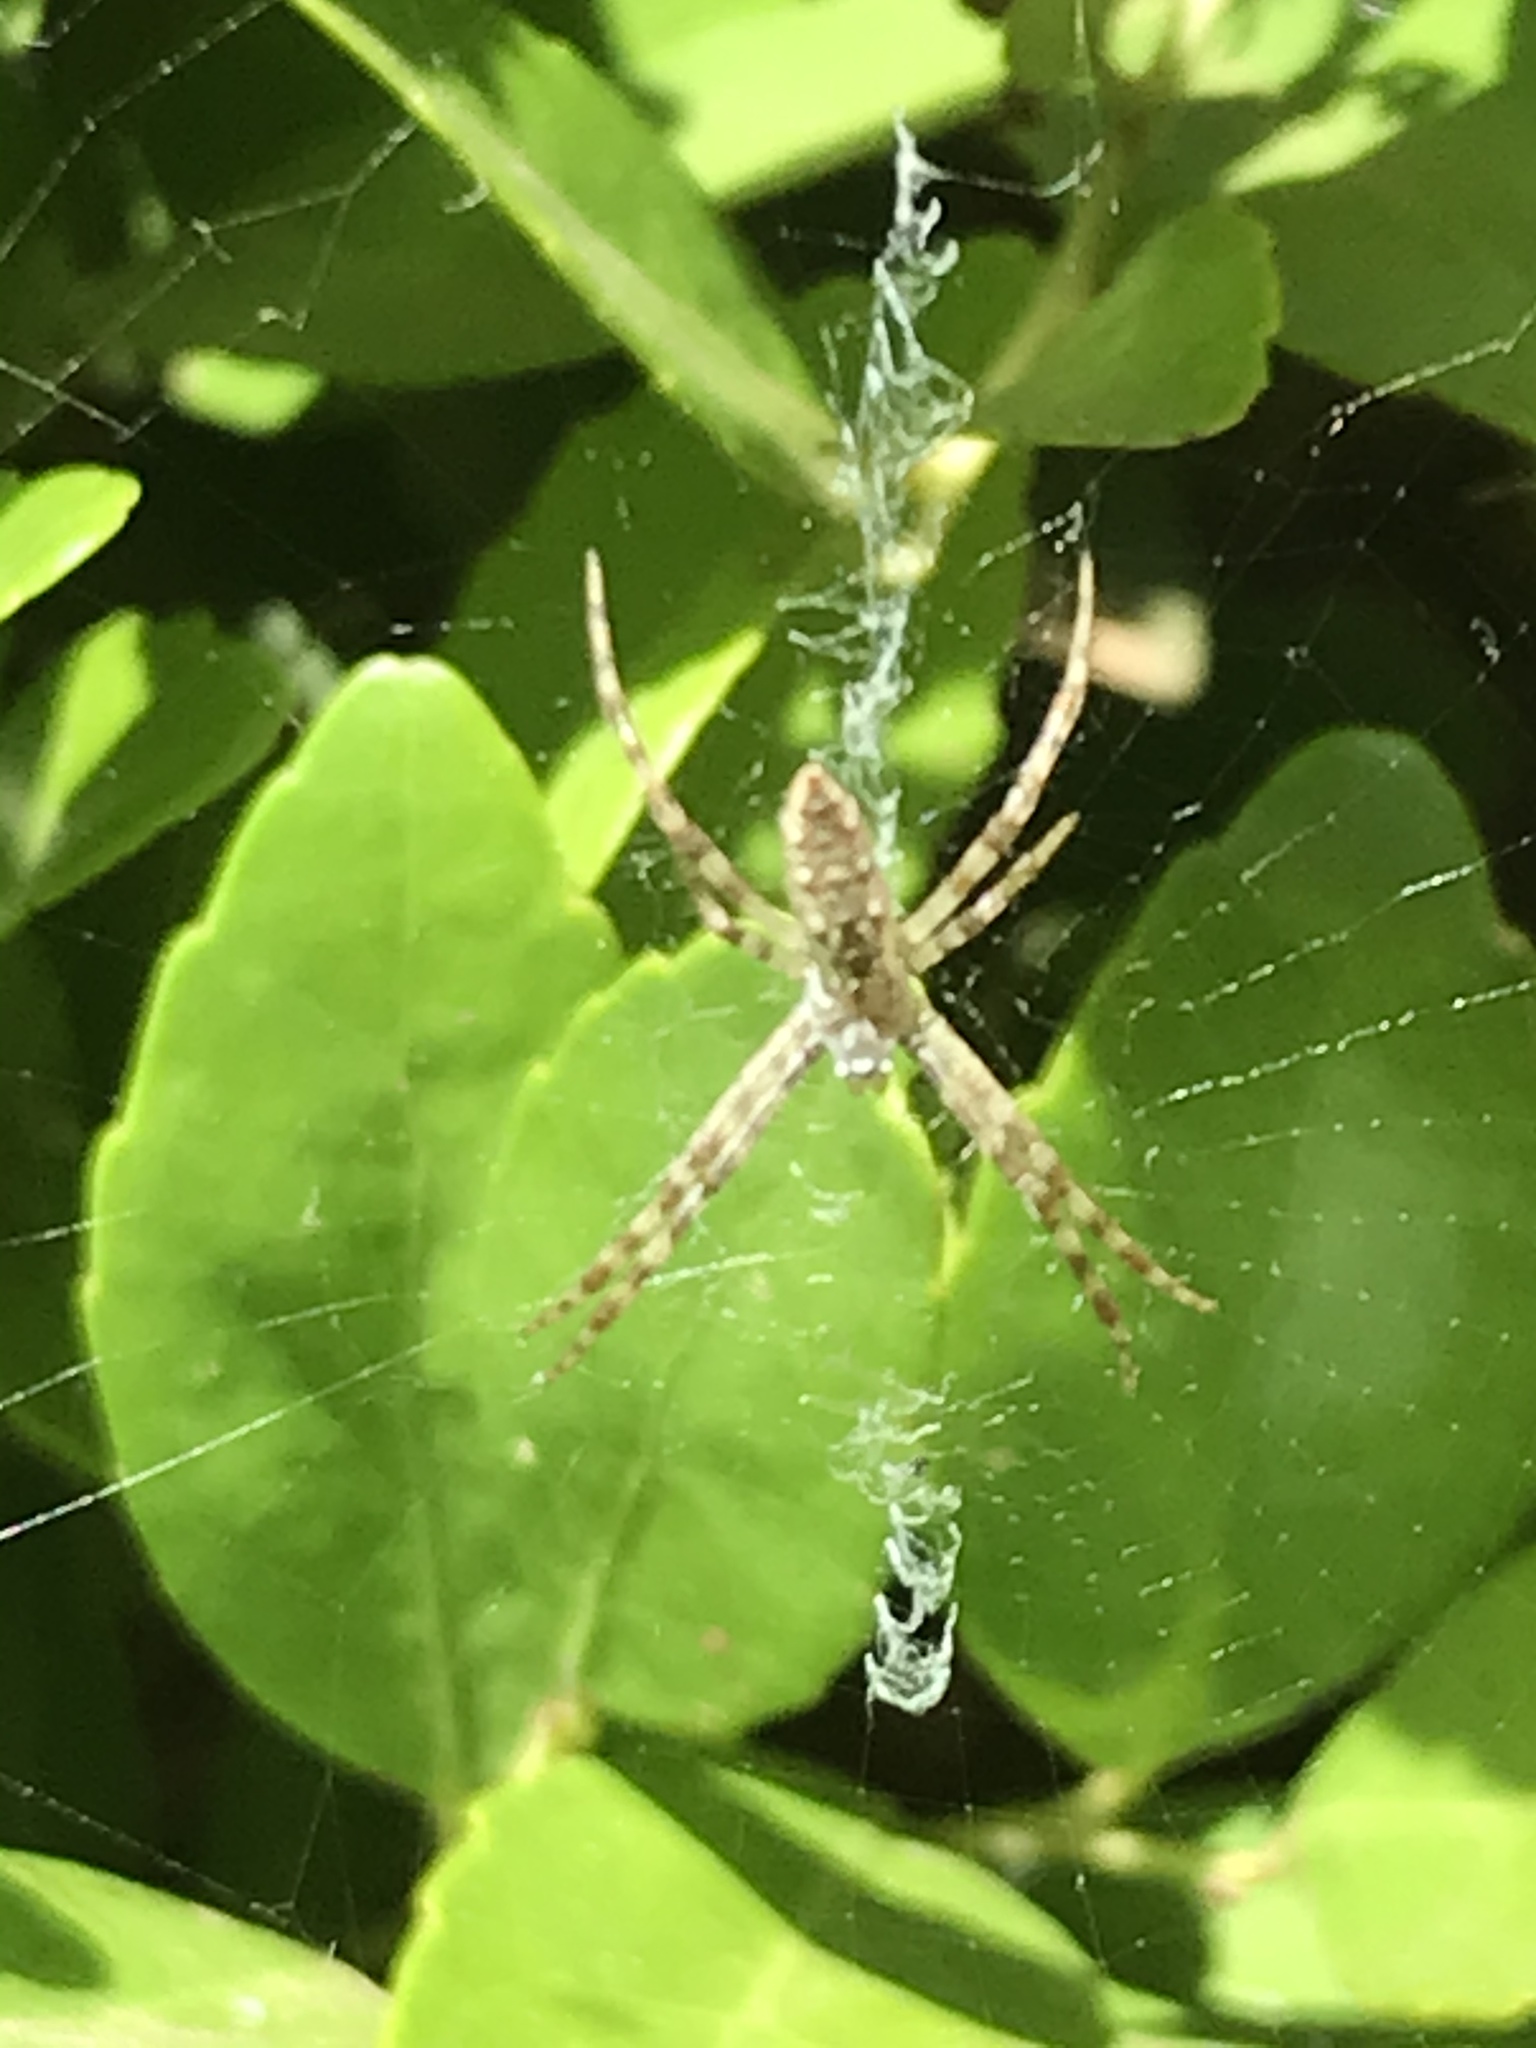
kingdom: Animalia
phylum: Arthropoda
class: Arachnida
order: Araneae
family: Araneidae
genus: Argiope
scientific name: Argiope aurantia
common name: Orb weavers
